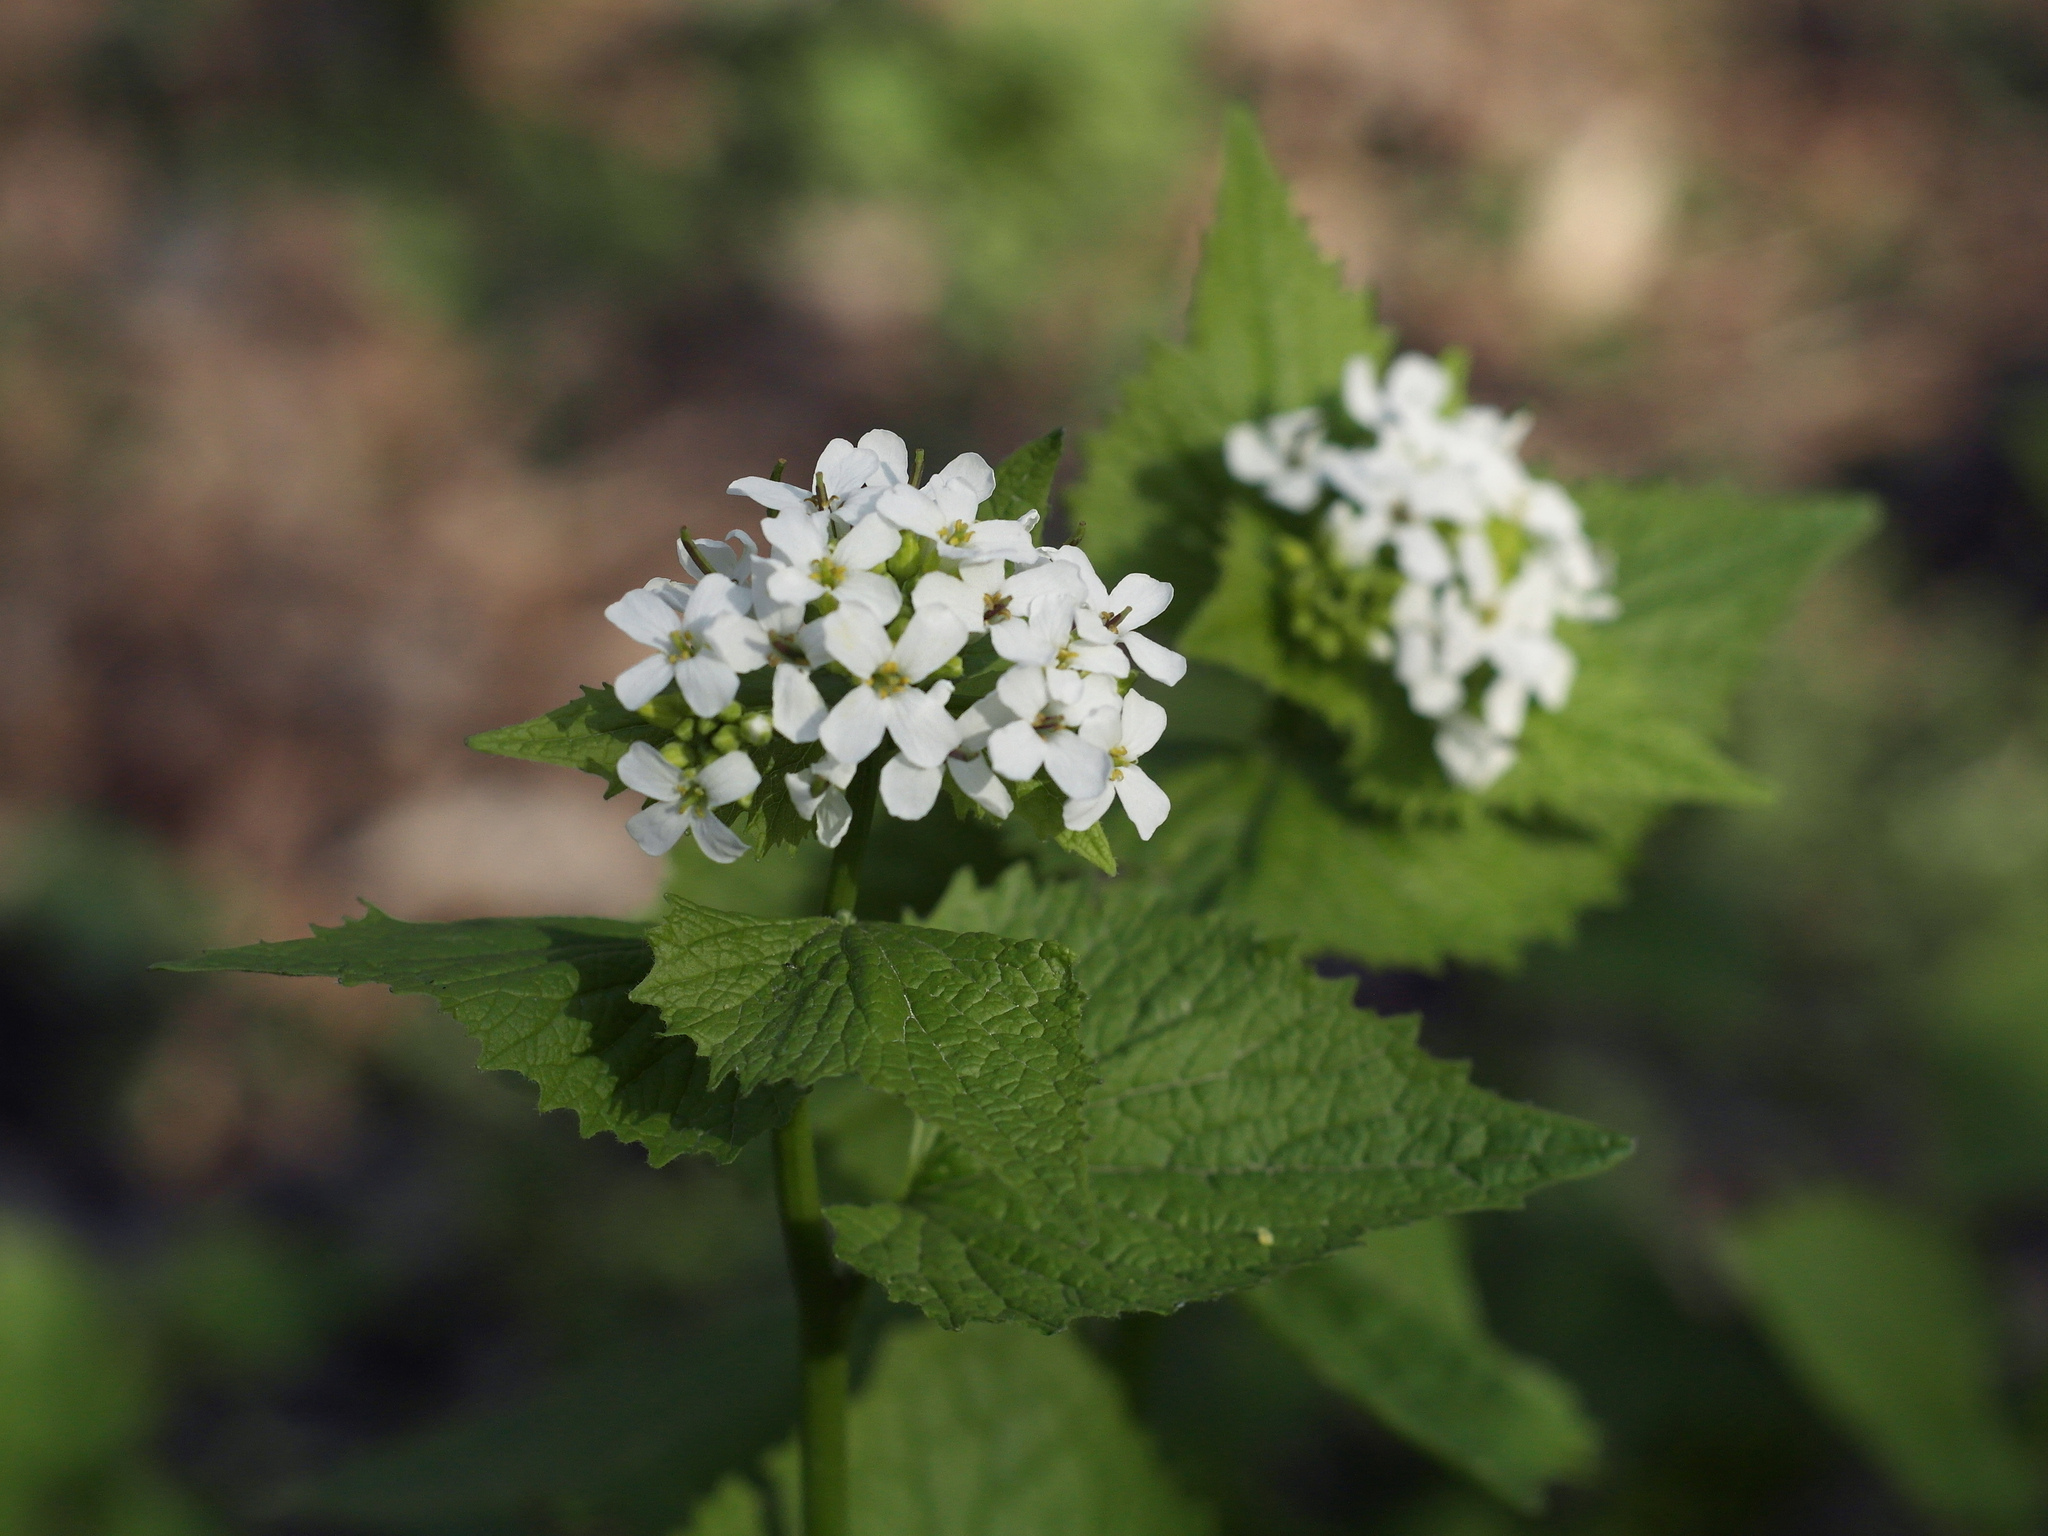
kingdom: Plantae
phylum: Tracheophyta
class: Magnoliopsida
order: Brassicales
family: Brassicaceae
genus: Alliaria
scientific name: Alliaria petiolata
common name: Garlic mustard
